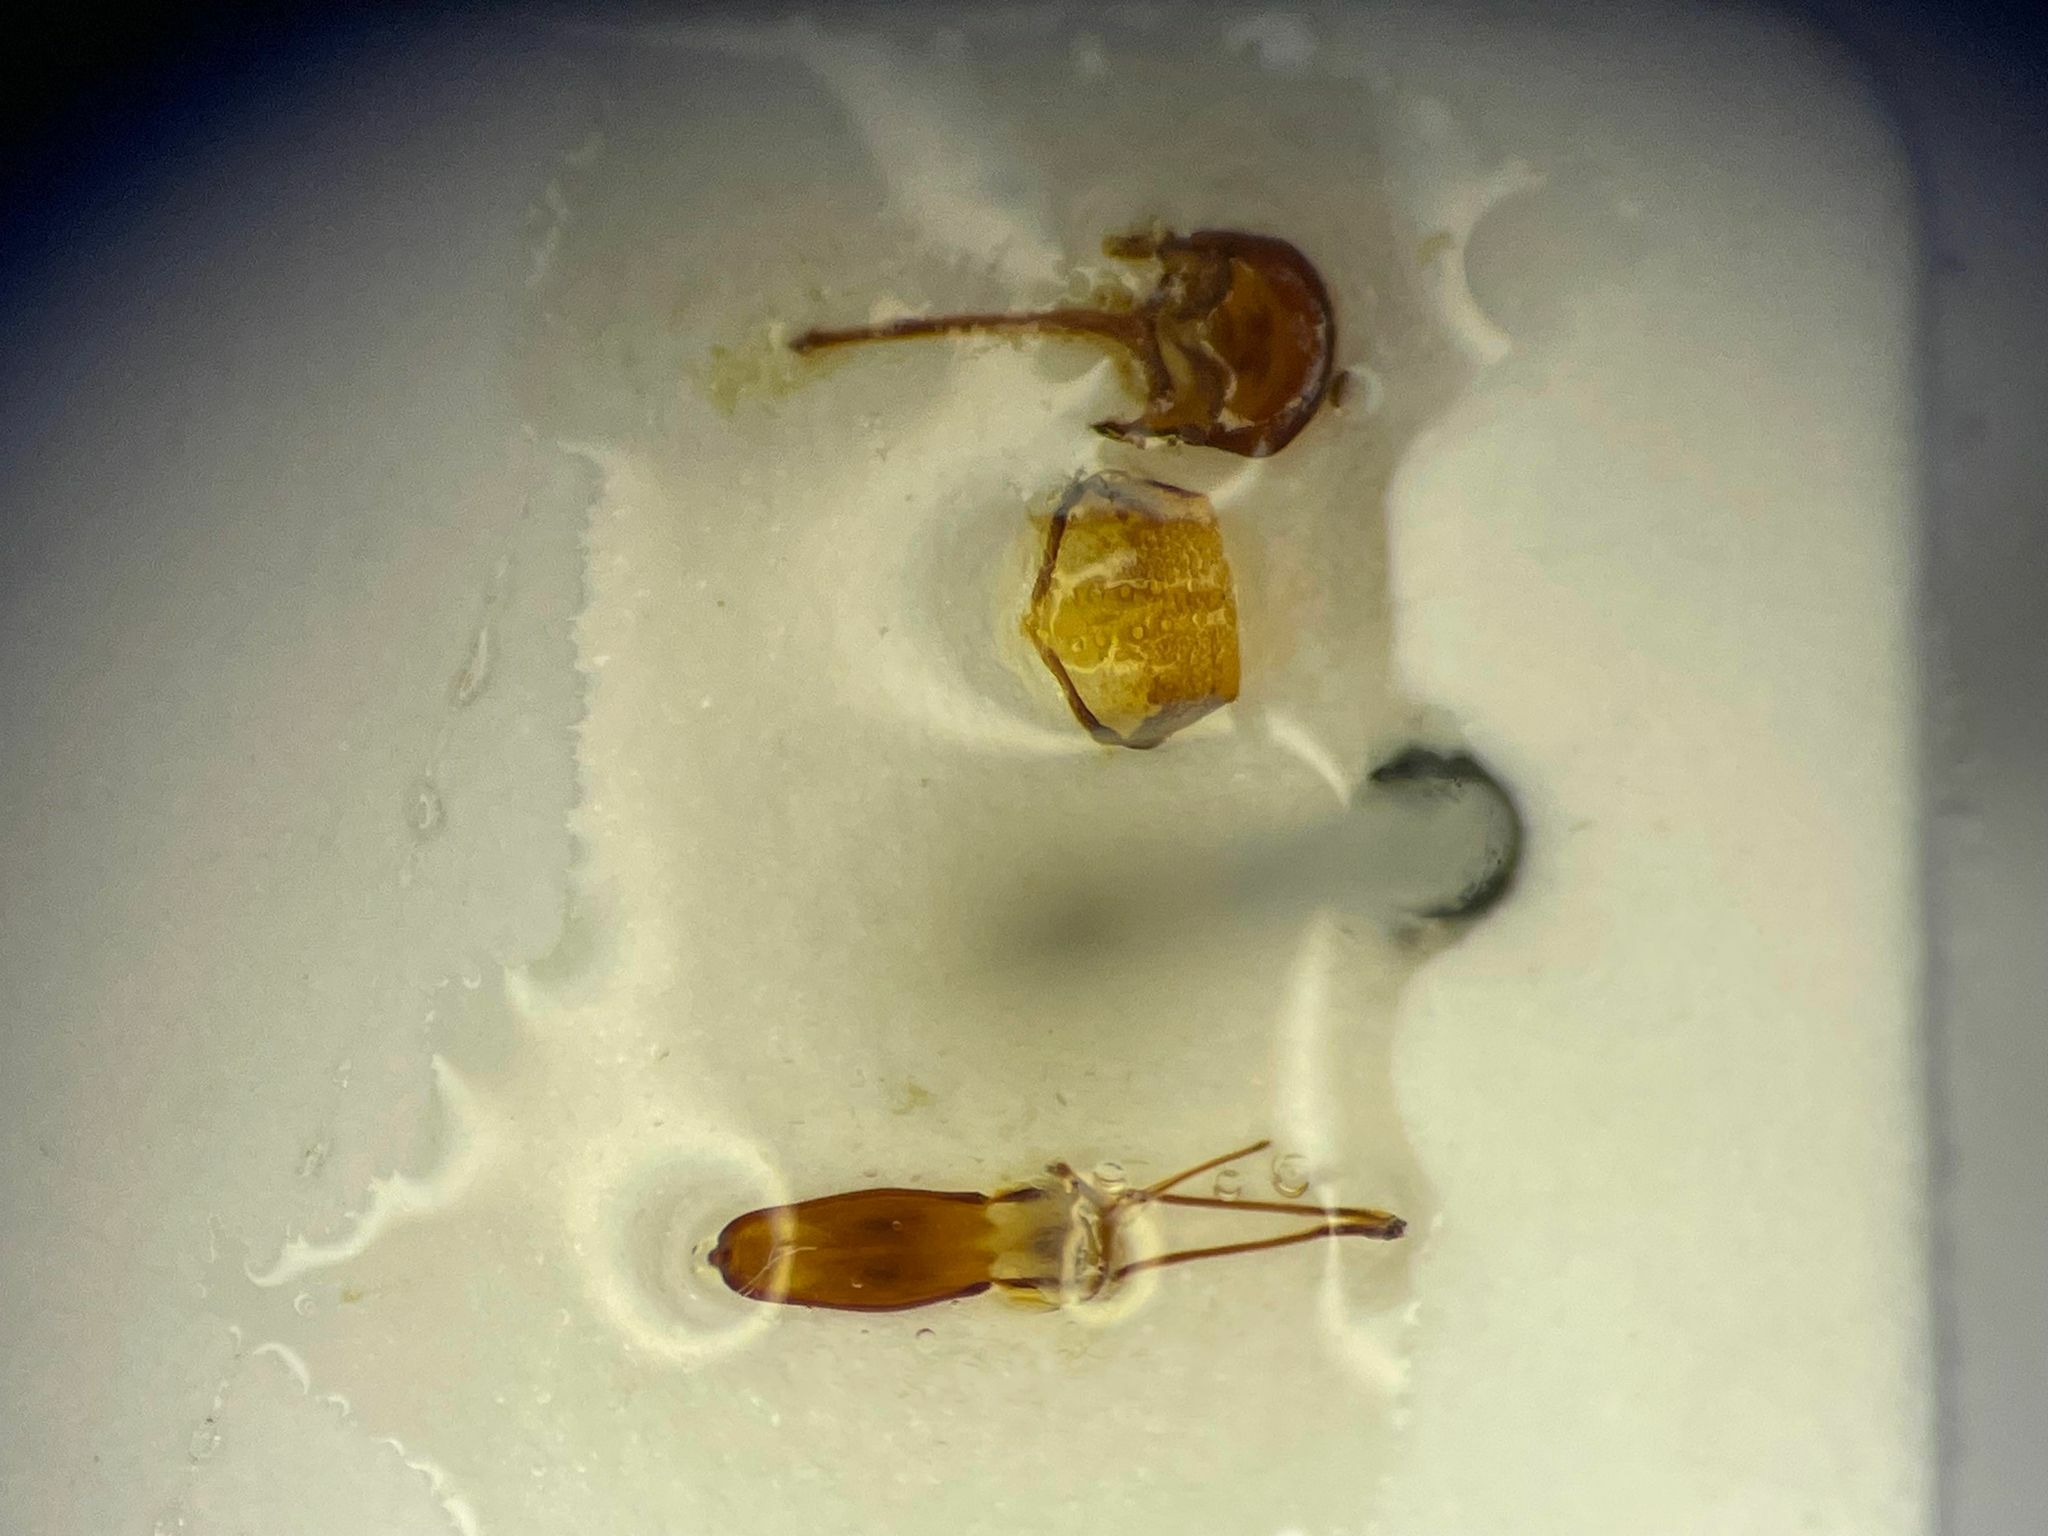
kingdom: Animalia
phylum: Arthropoda
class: Insecta
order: Coleoptera
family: Curculionidae
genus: Acalles
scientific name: Acalles carinatus
